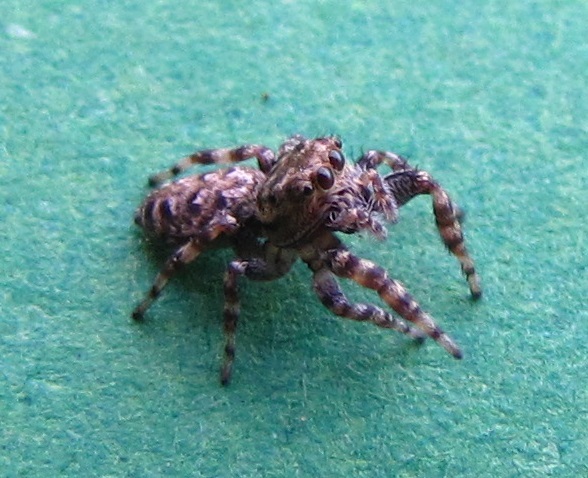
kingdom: Animalia
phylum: Arthropoda
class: Arachnida
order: Araneae
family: Salticidae
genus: Pelegrina
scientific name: Pelegrina galathea
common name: Jumping spiders
